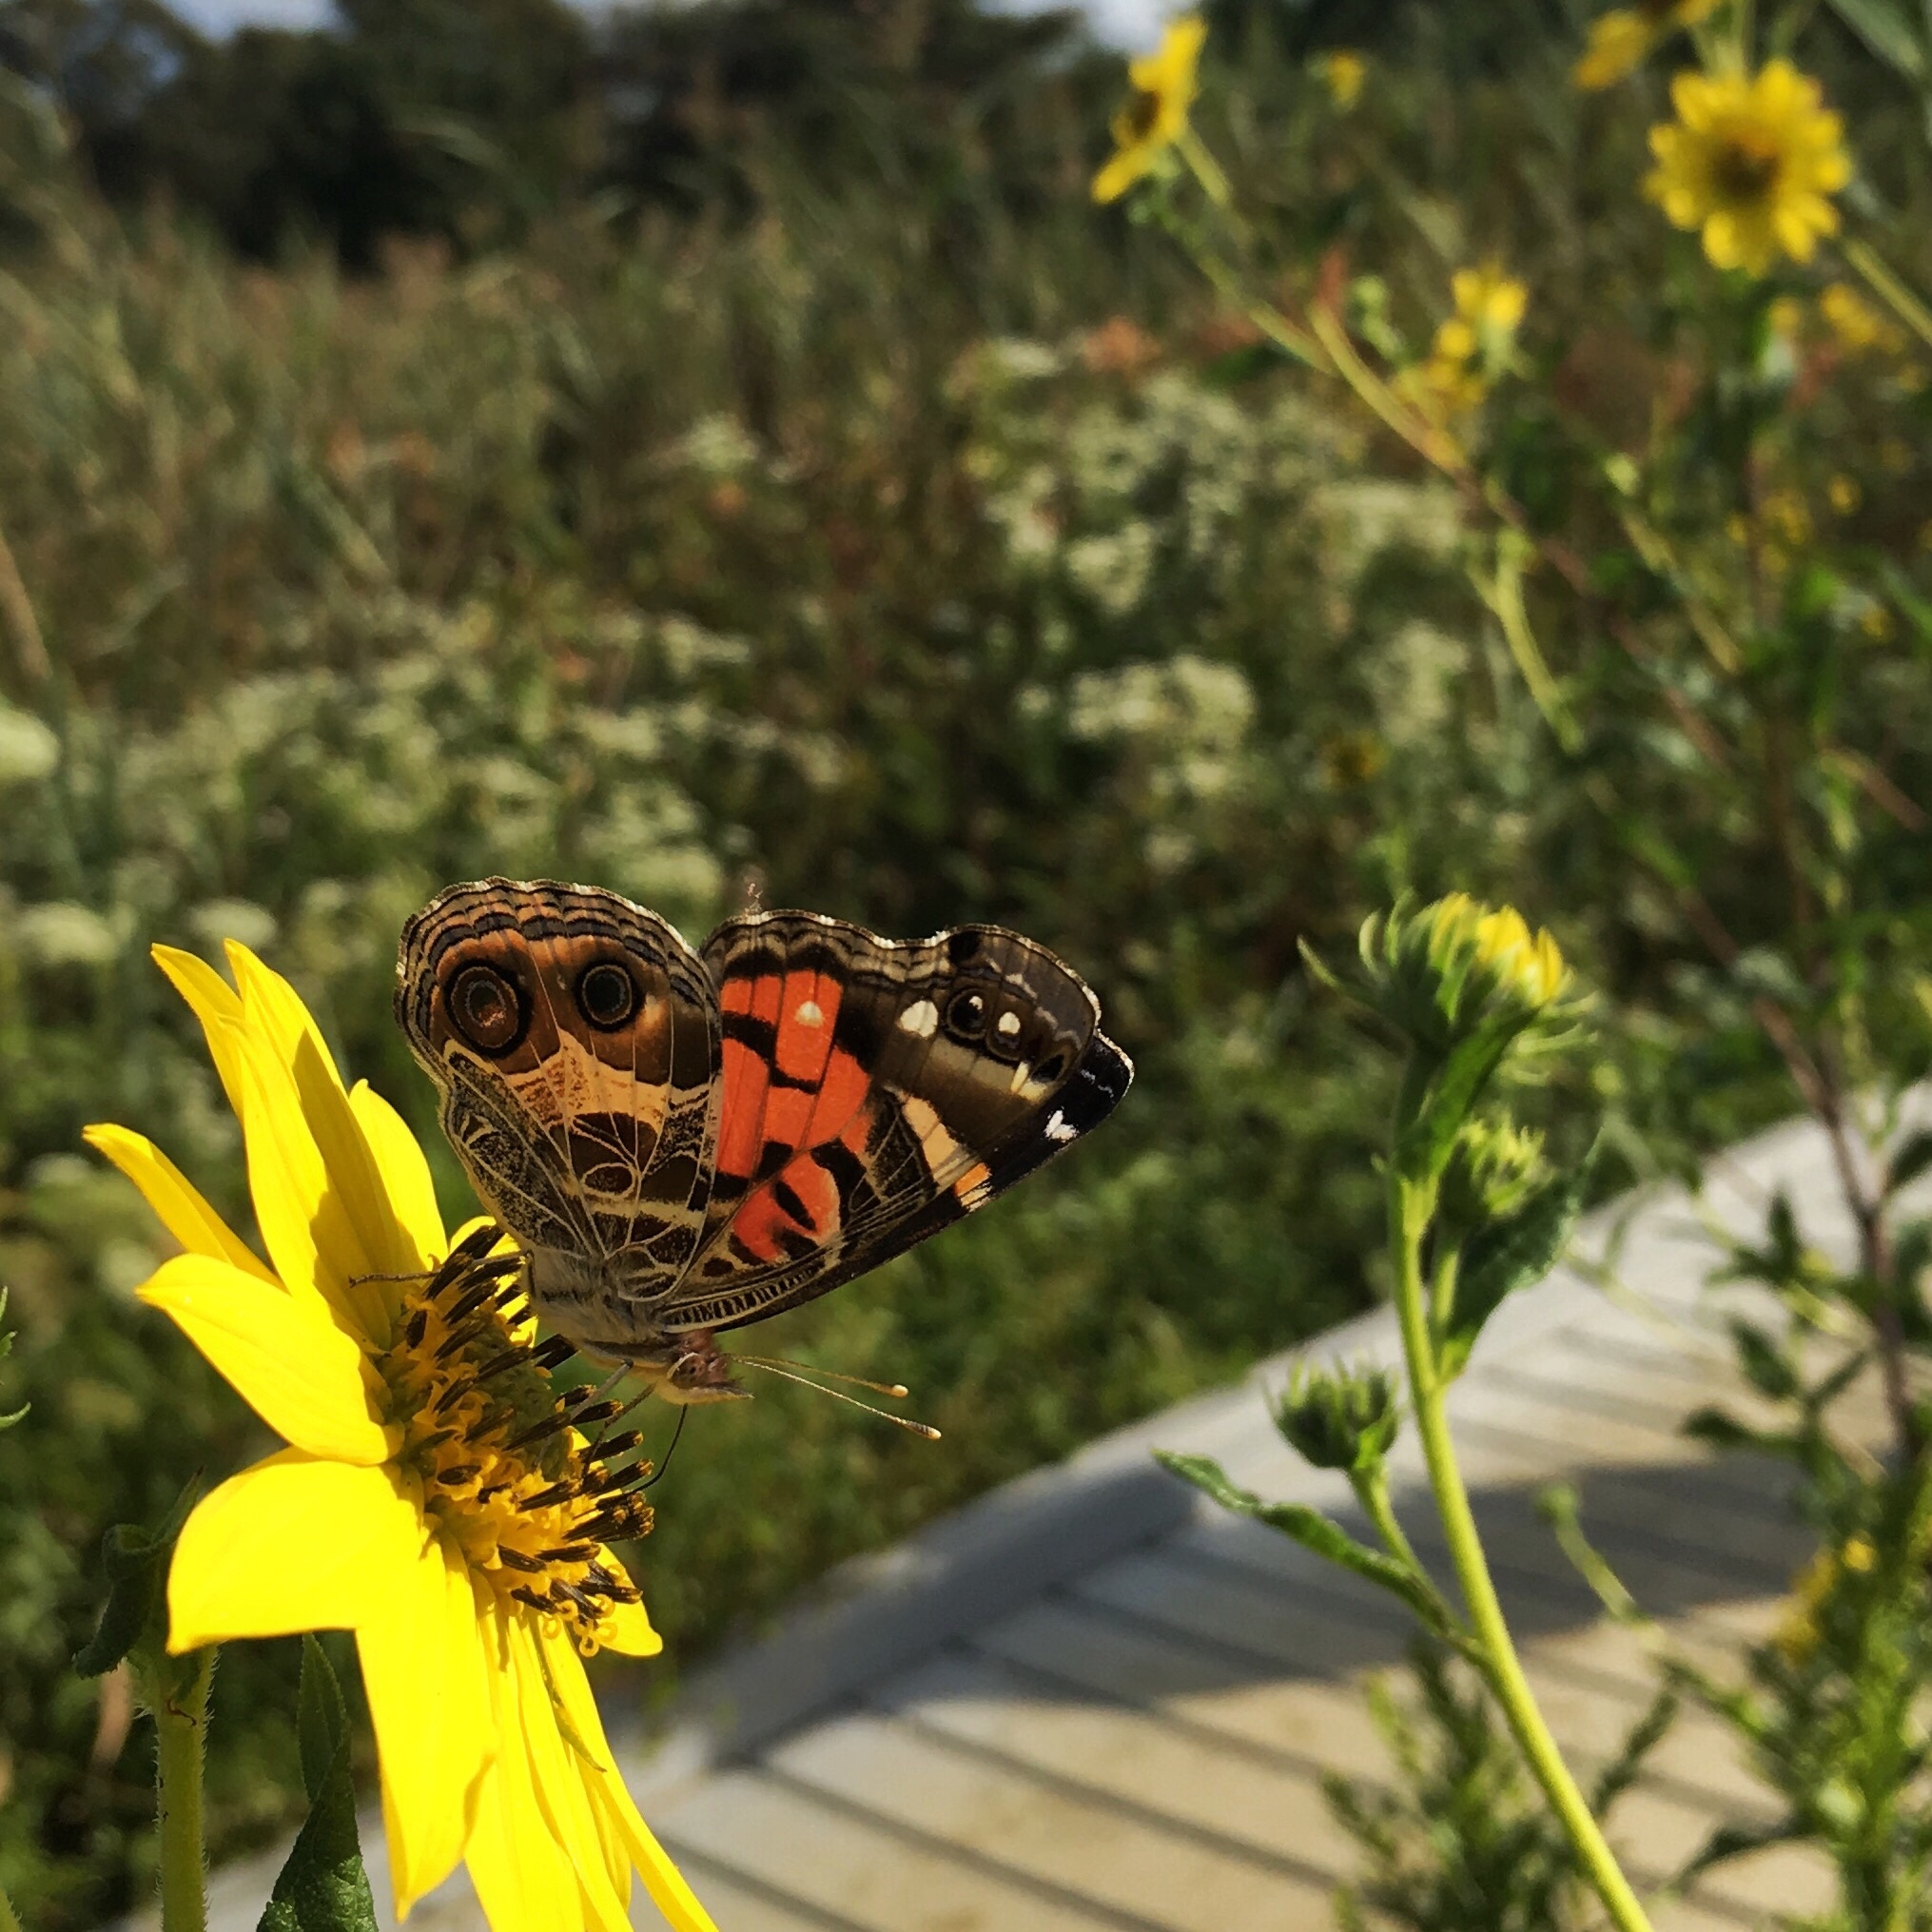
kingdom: Animalia
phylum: Arthropoda
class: Insecta
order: Lepidoptera
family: Nymphalidae
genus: Vanessa
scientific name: Vanessa virginiensis
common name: American lady
